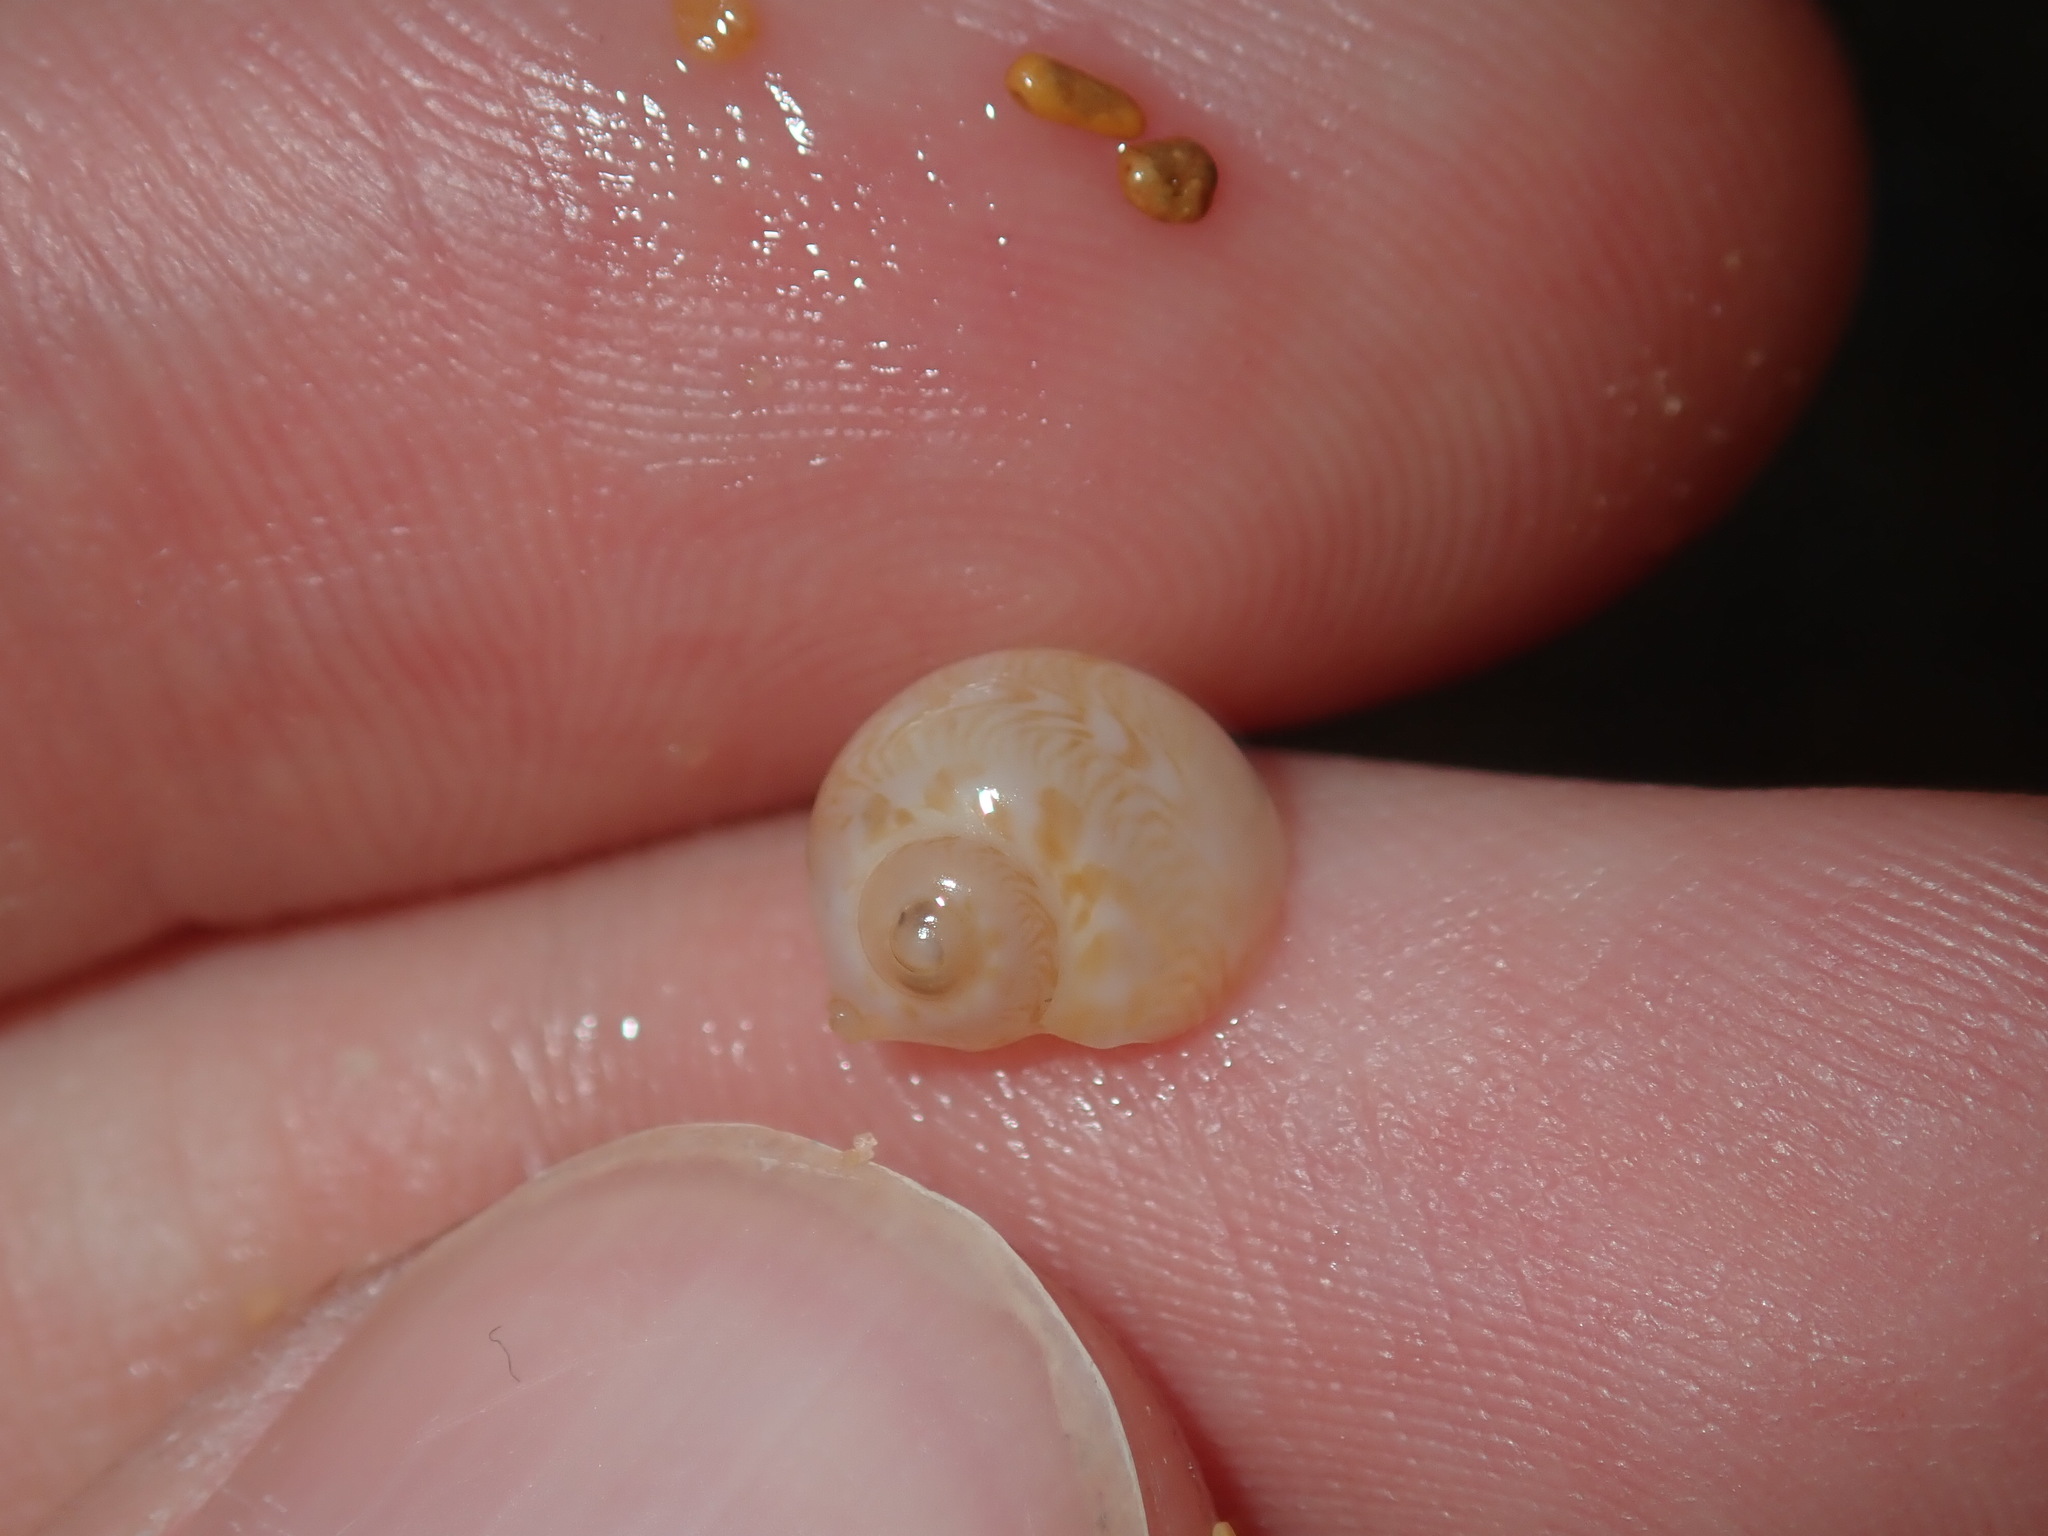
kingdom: Animalia
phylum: Mollusca
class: Gastropoda
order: Littorinimorpha
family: Naticidae
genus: Tanea
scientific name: Tanea sagittata
